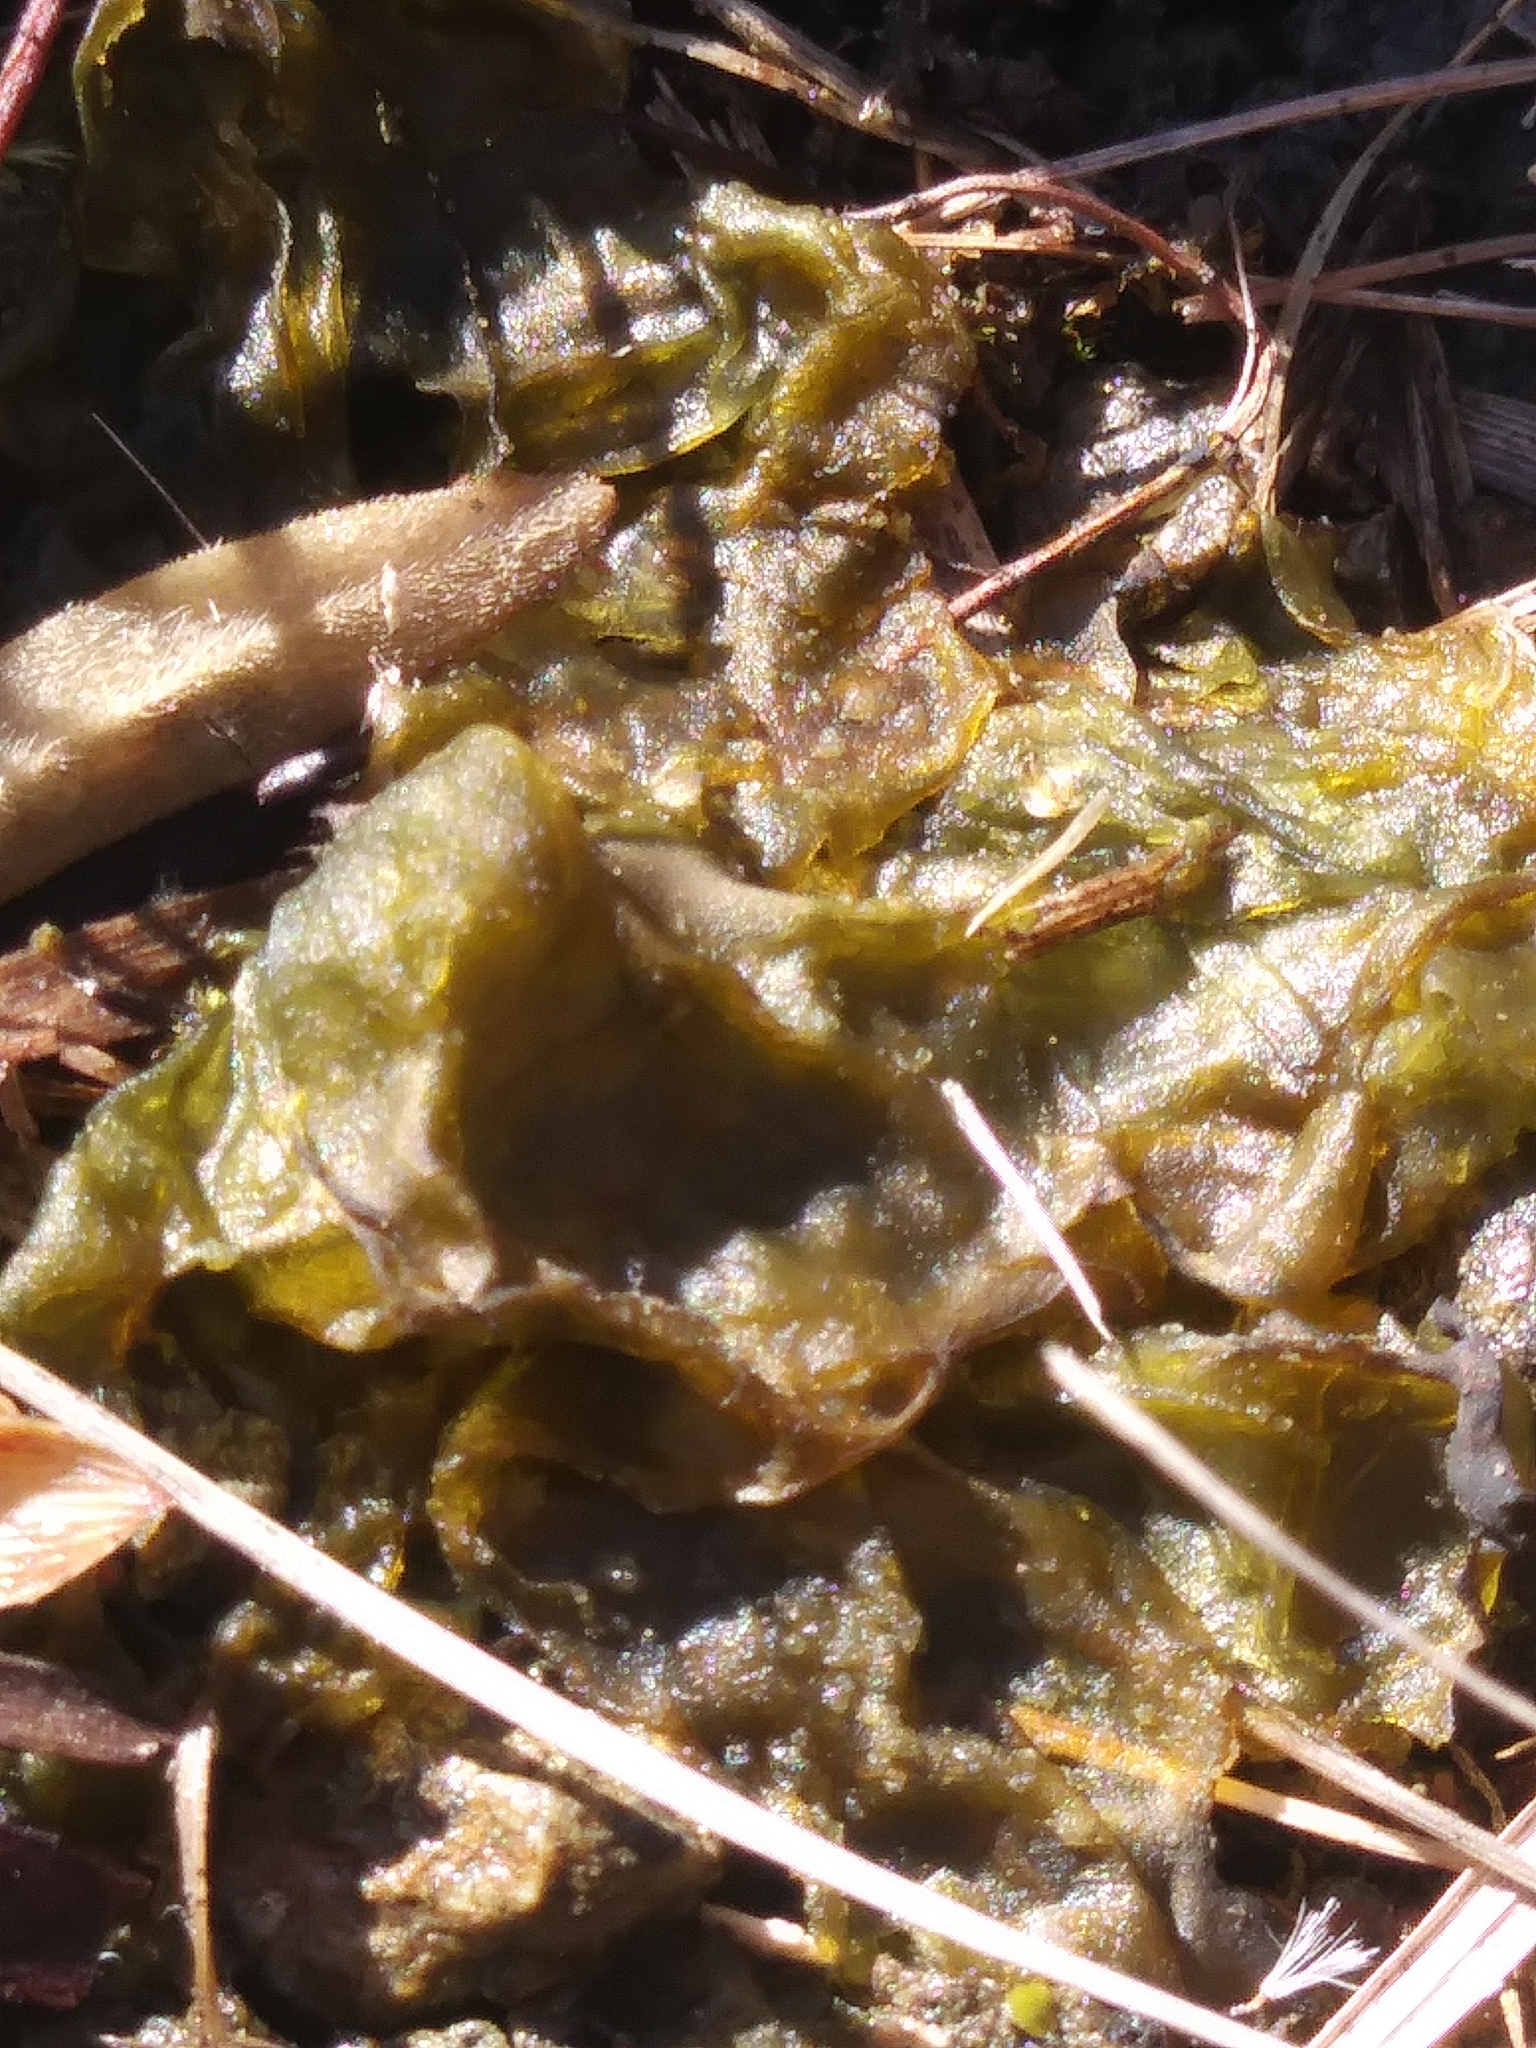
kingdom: Bacteria
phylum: Cyanobacteria
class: Cyanobacteriia
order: Cyanobacteriales
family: Nostocaceae
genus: Nostoc
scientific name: Nostoc commune
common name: Star jelly
